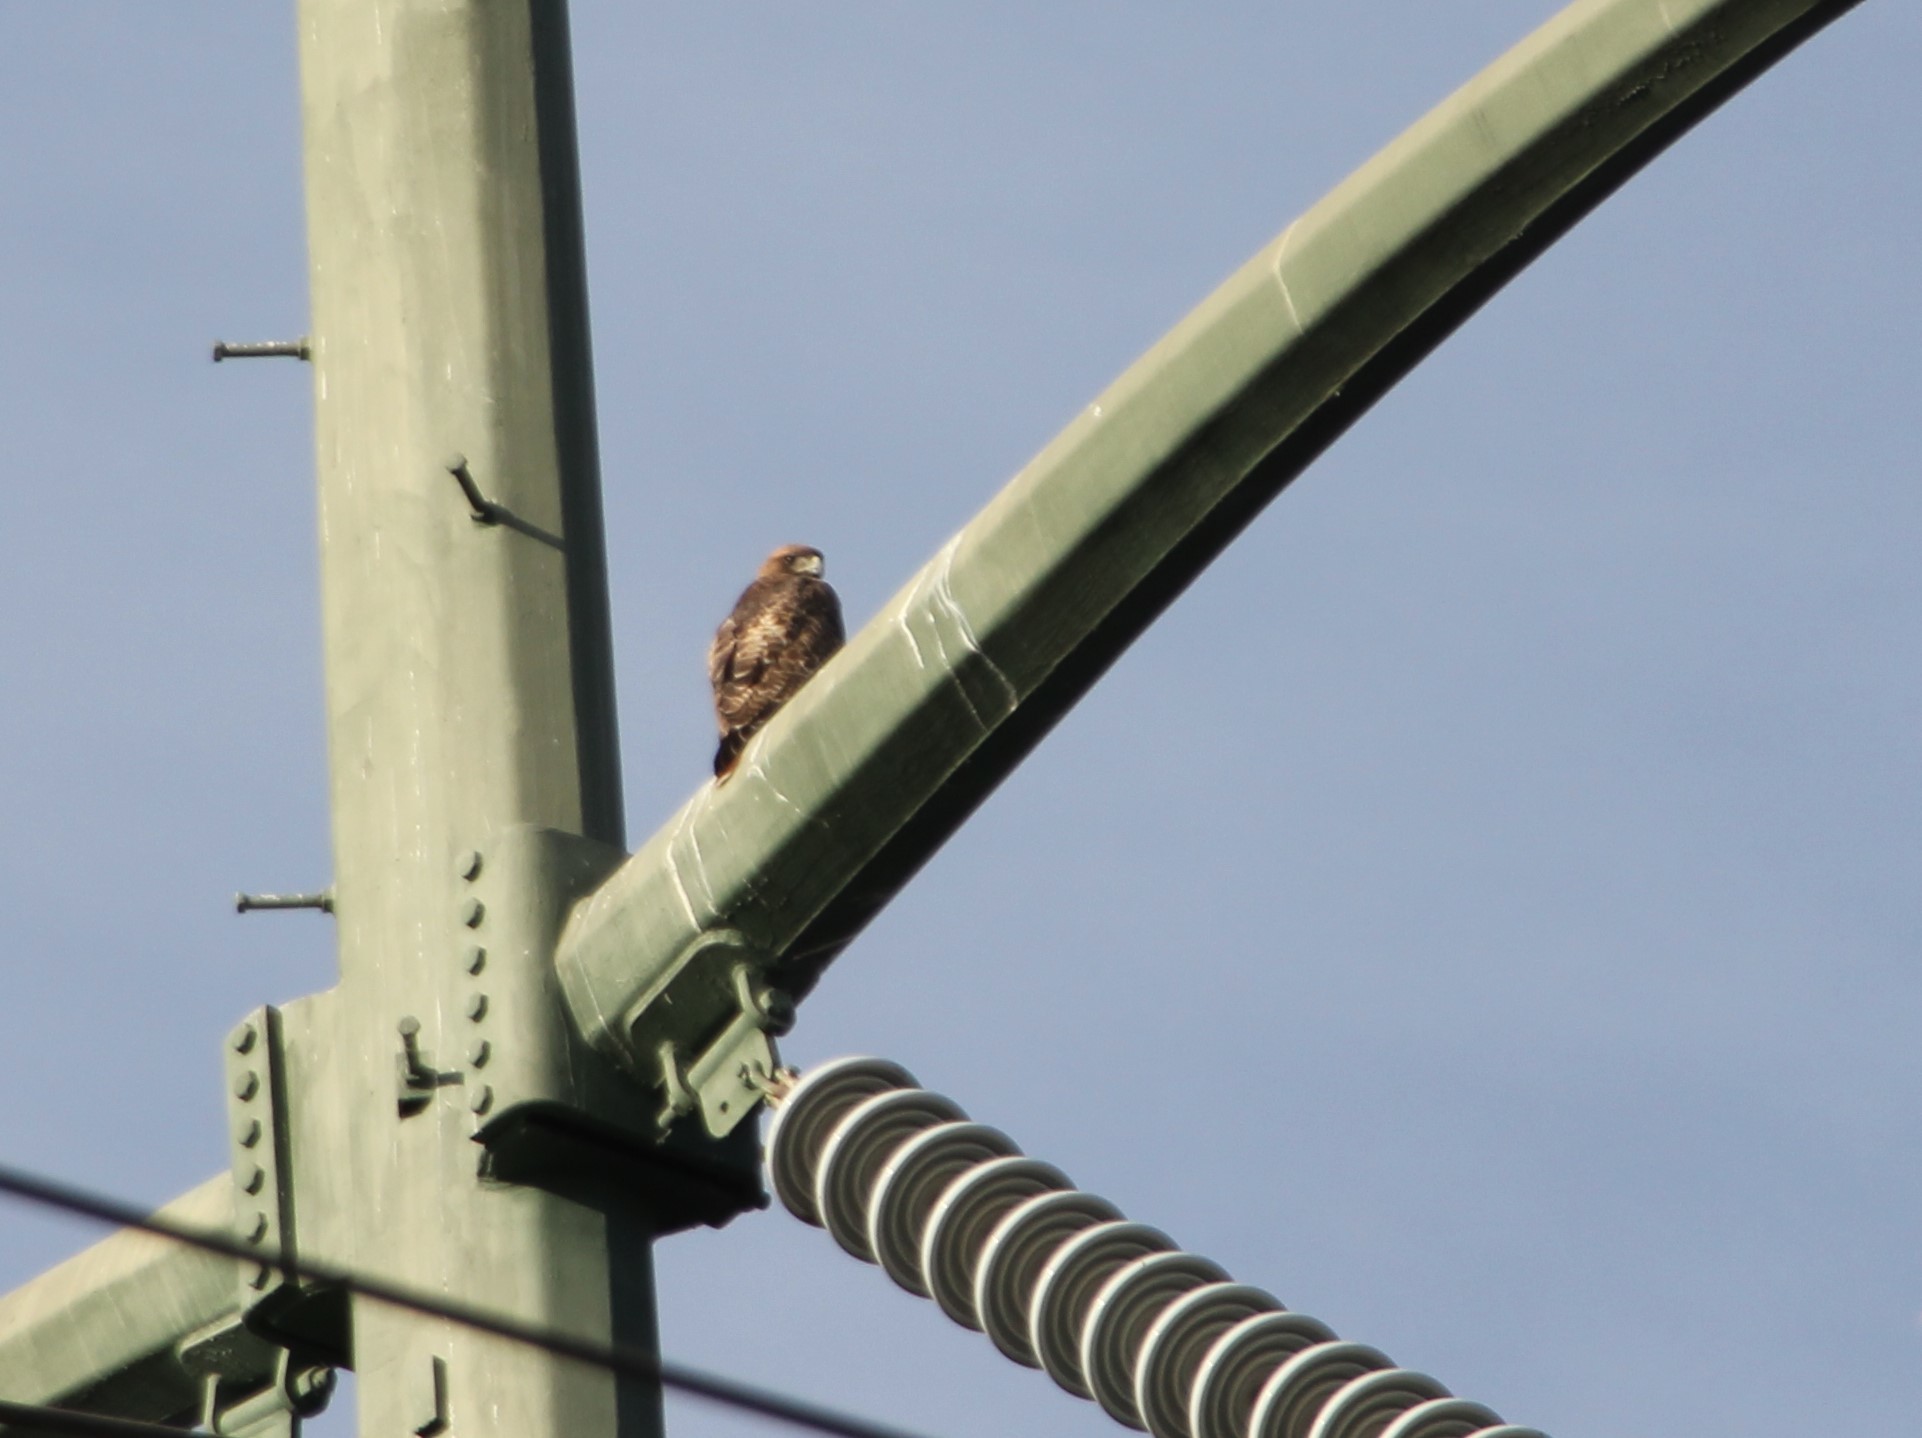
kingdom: Animalia
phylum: Chordata
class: Aves
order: Accipitriformes
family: Accipitridae
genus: Buteo
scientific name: Buteo jamaicensis
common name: Red-tailed hawk
